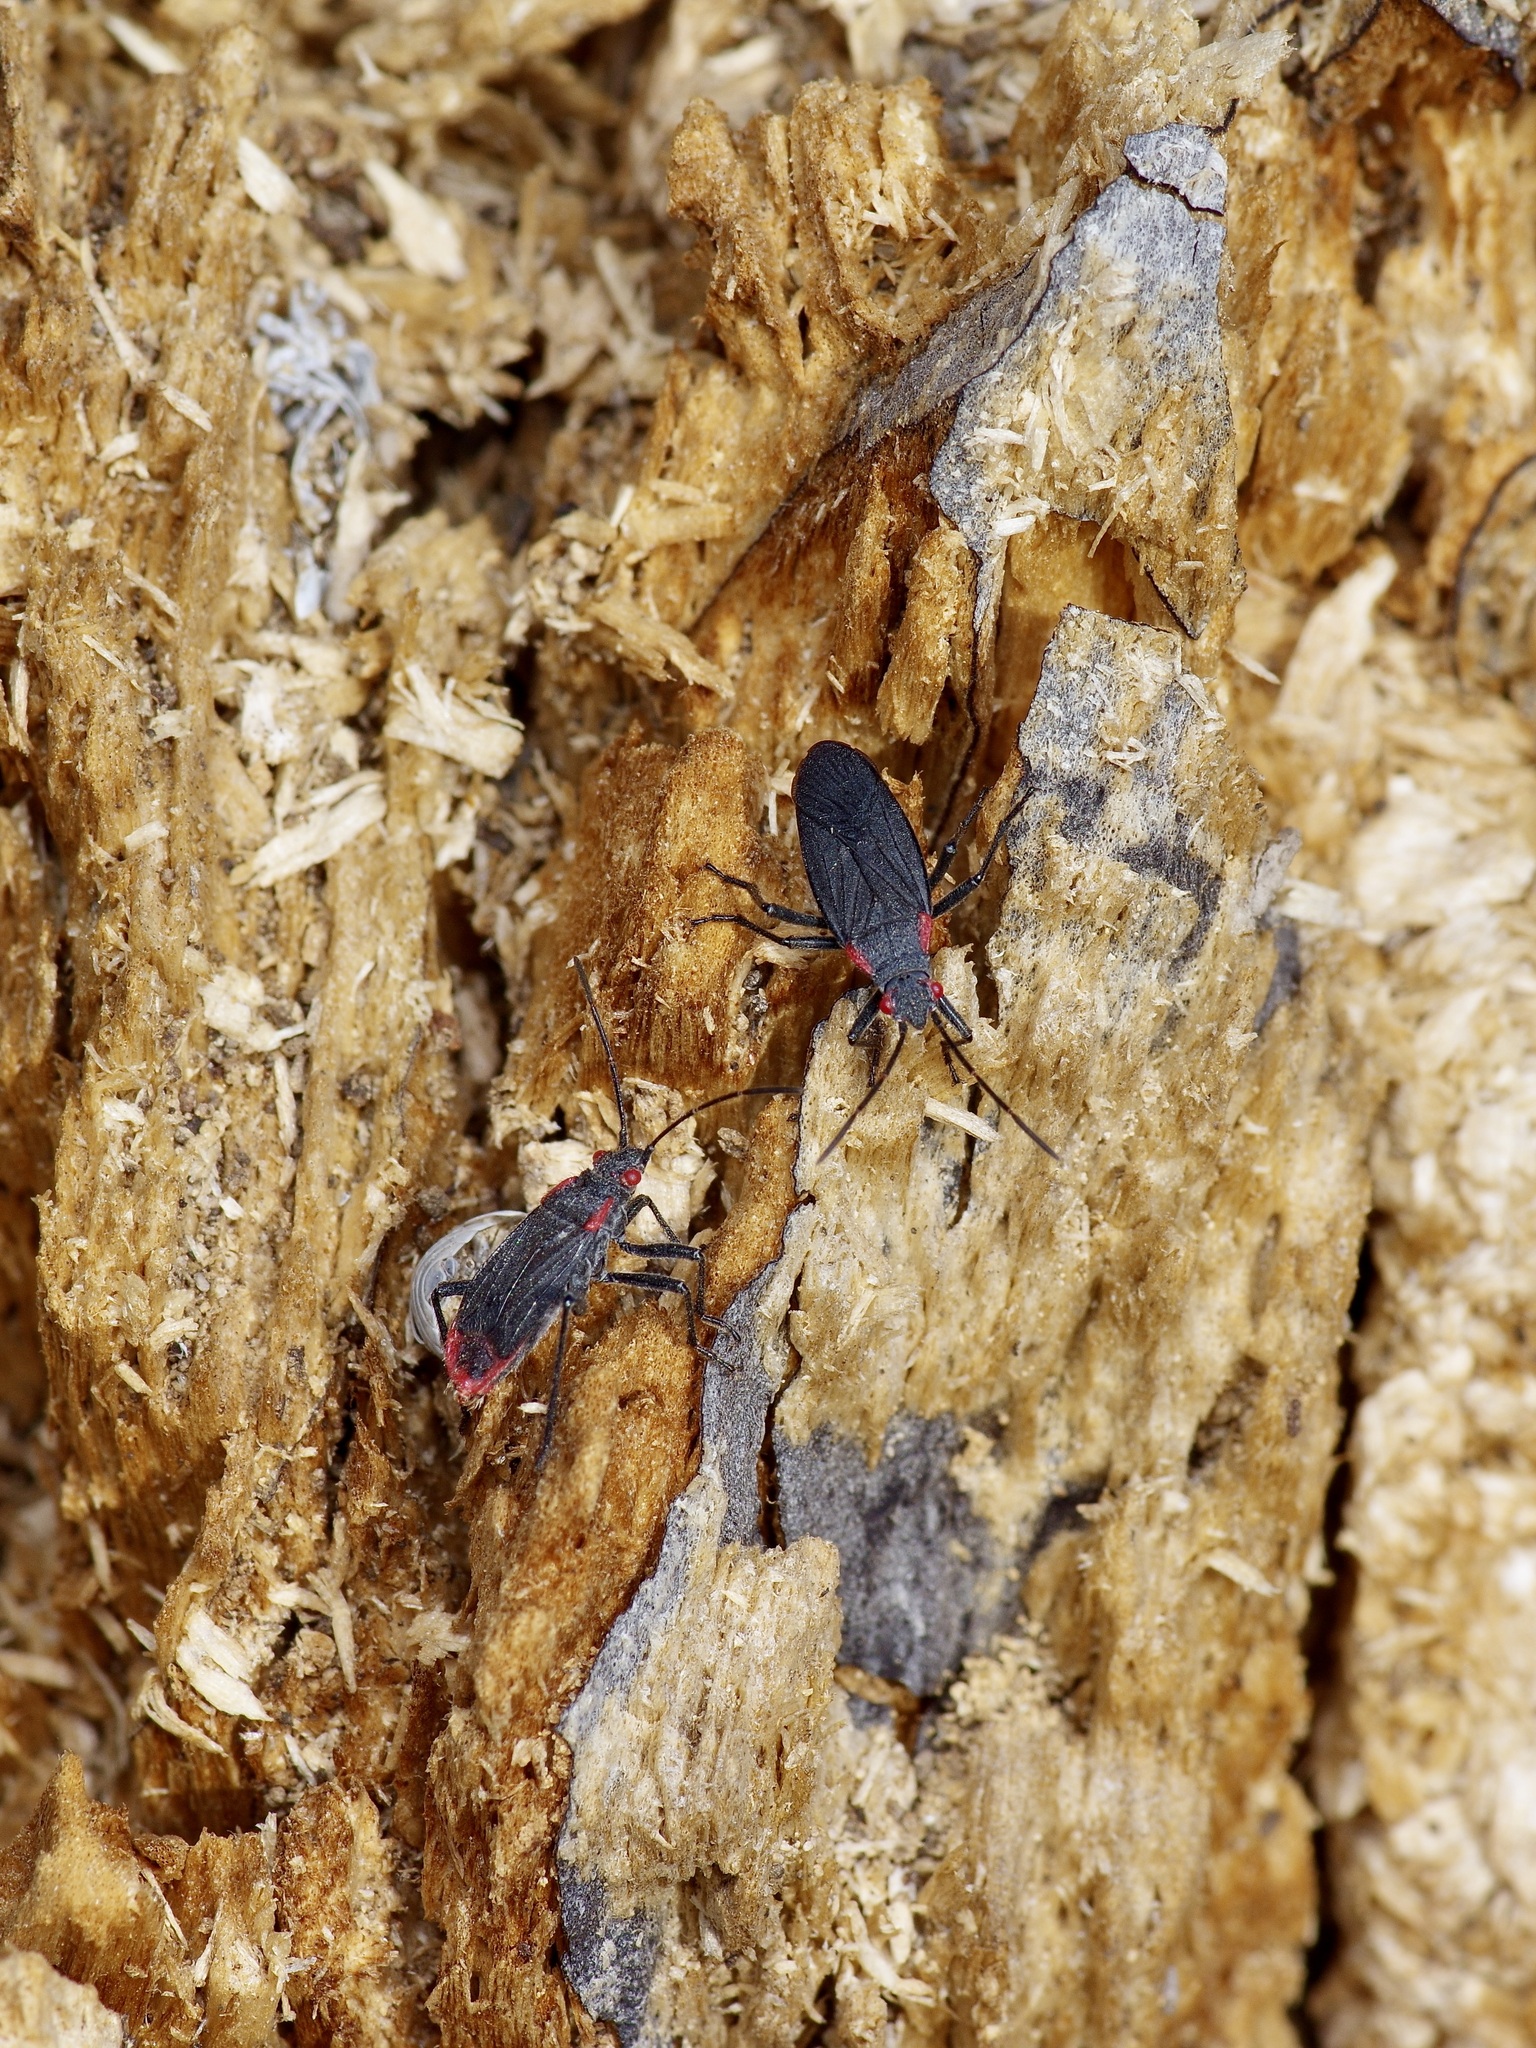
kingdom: Animalia
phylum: Arthropoda
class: Insecta
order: Hemiptera
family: Rhopalidae
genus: Jadera
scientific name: Jadera haematoloma
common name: Red-shouldered bug
